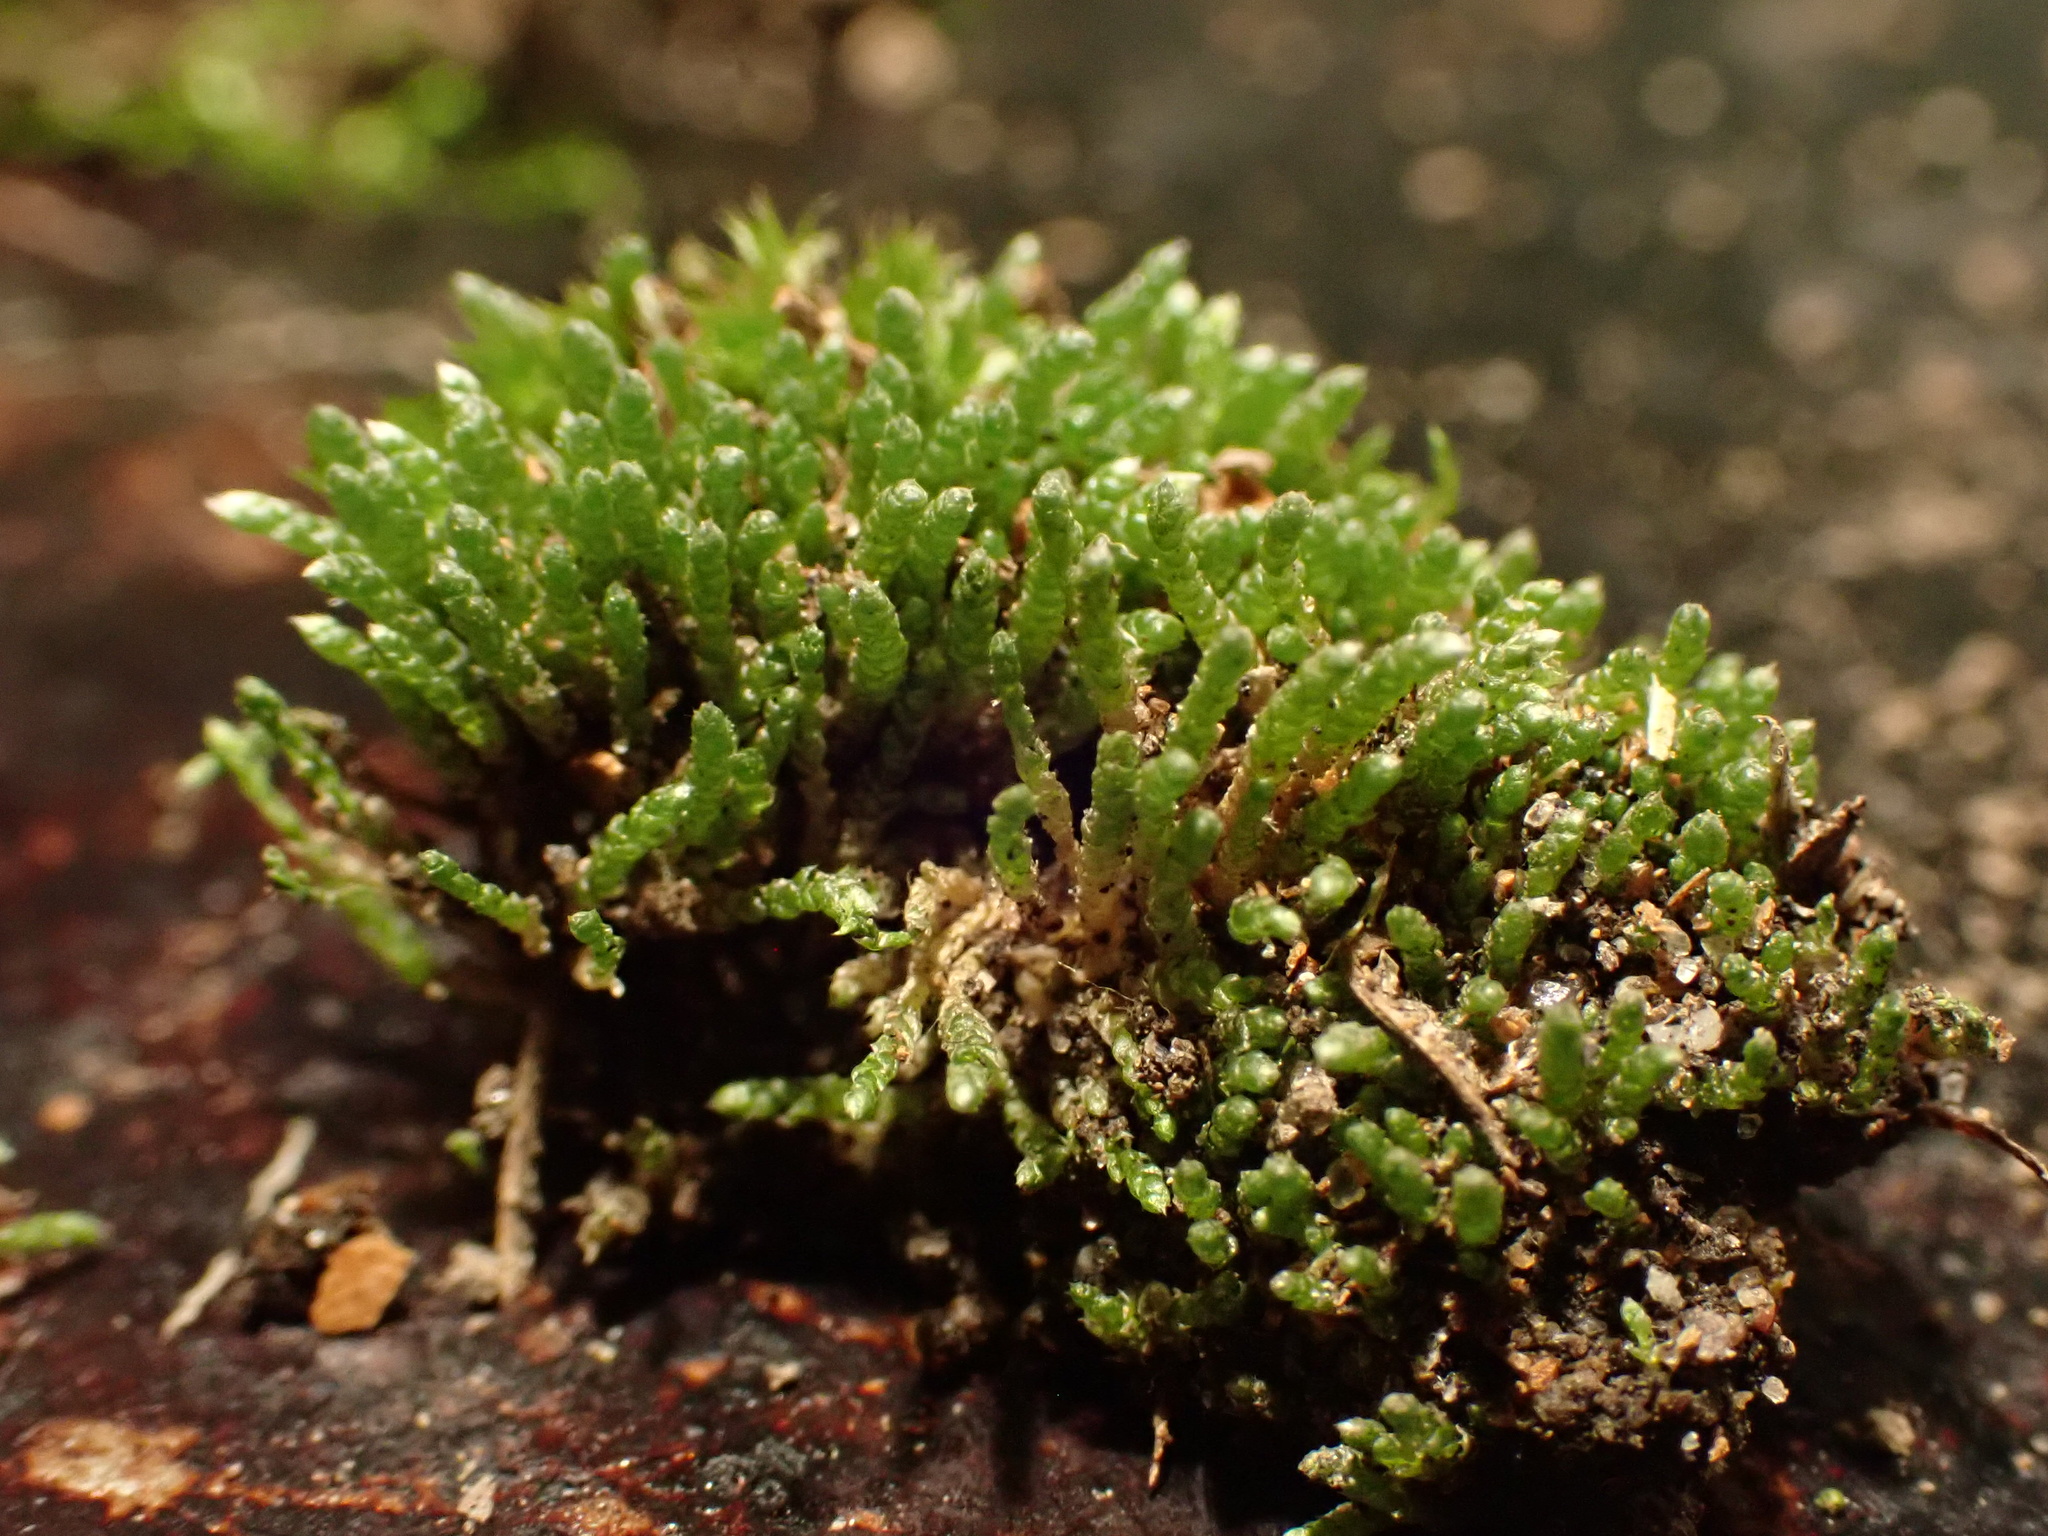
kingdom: Plantae
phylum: Bryophyta
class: Bryopsida
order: Bryales
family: Bryaceae
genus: Bryum
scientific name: Bryum argenteum
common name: Silver-moss
